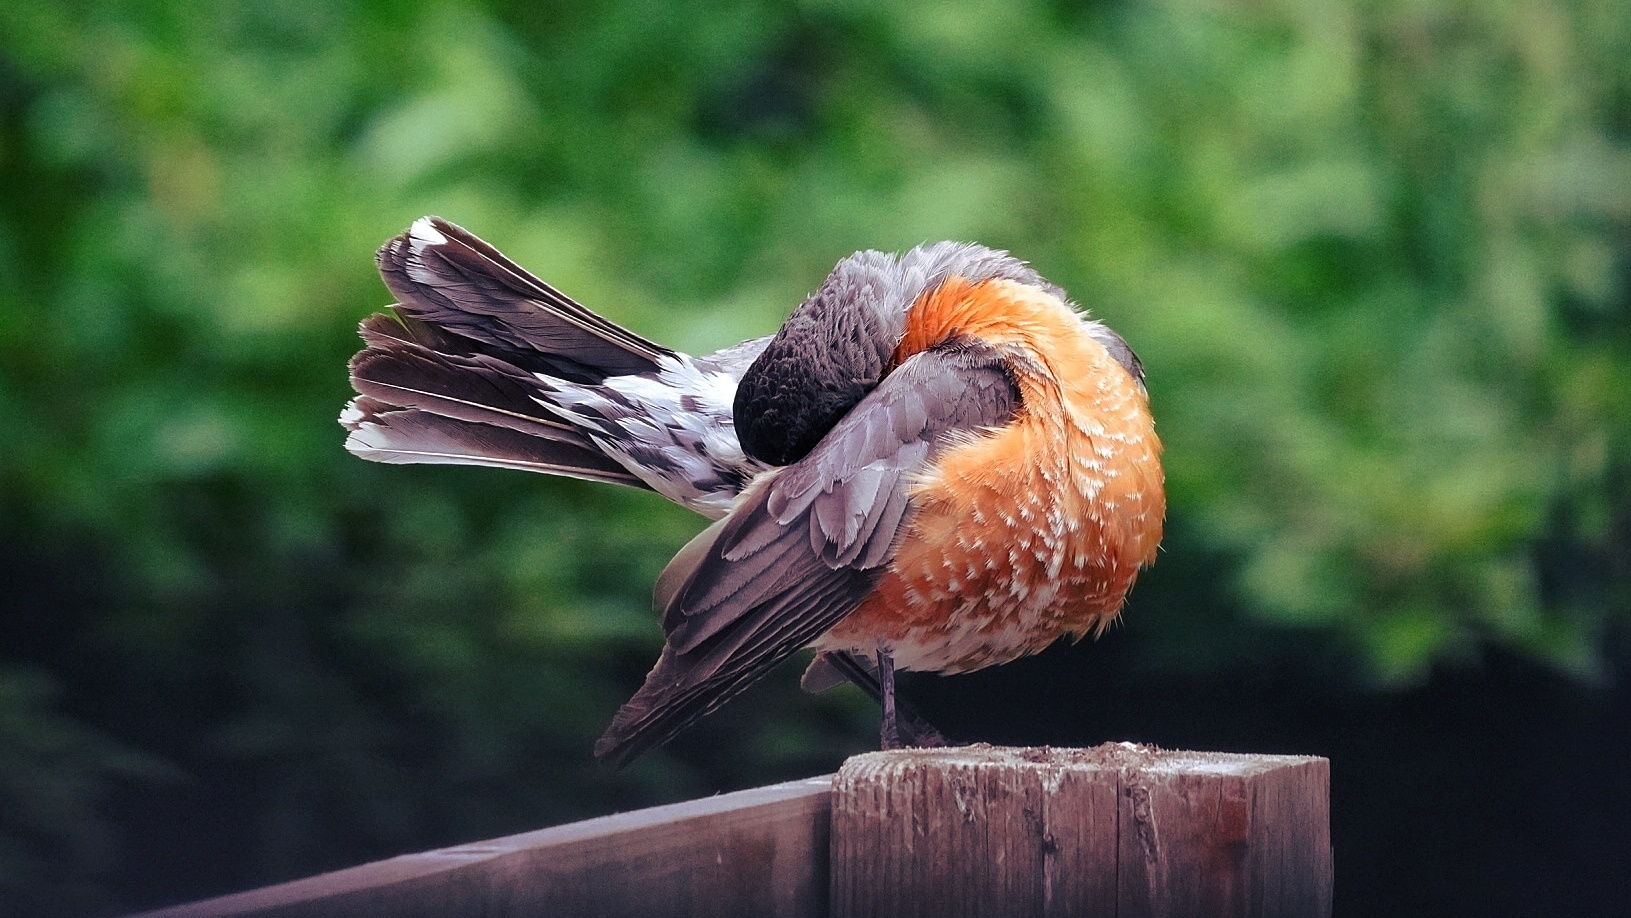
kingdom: Animalia
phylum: Chordata
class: Aves
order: Passeriformes
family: Turdidae
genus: Turdus
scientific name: Turdus migratorius
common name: American robin
